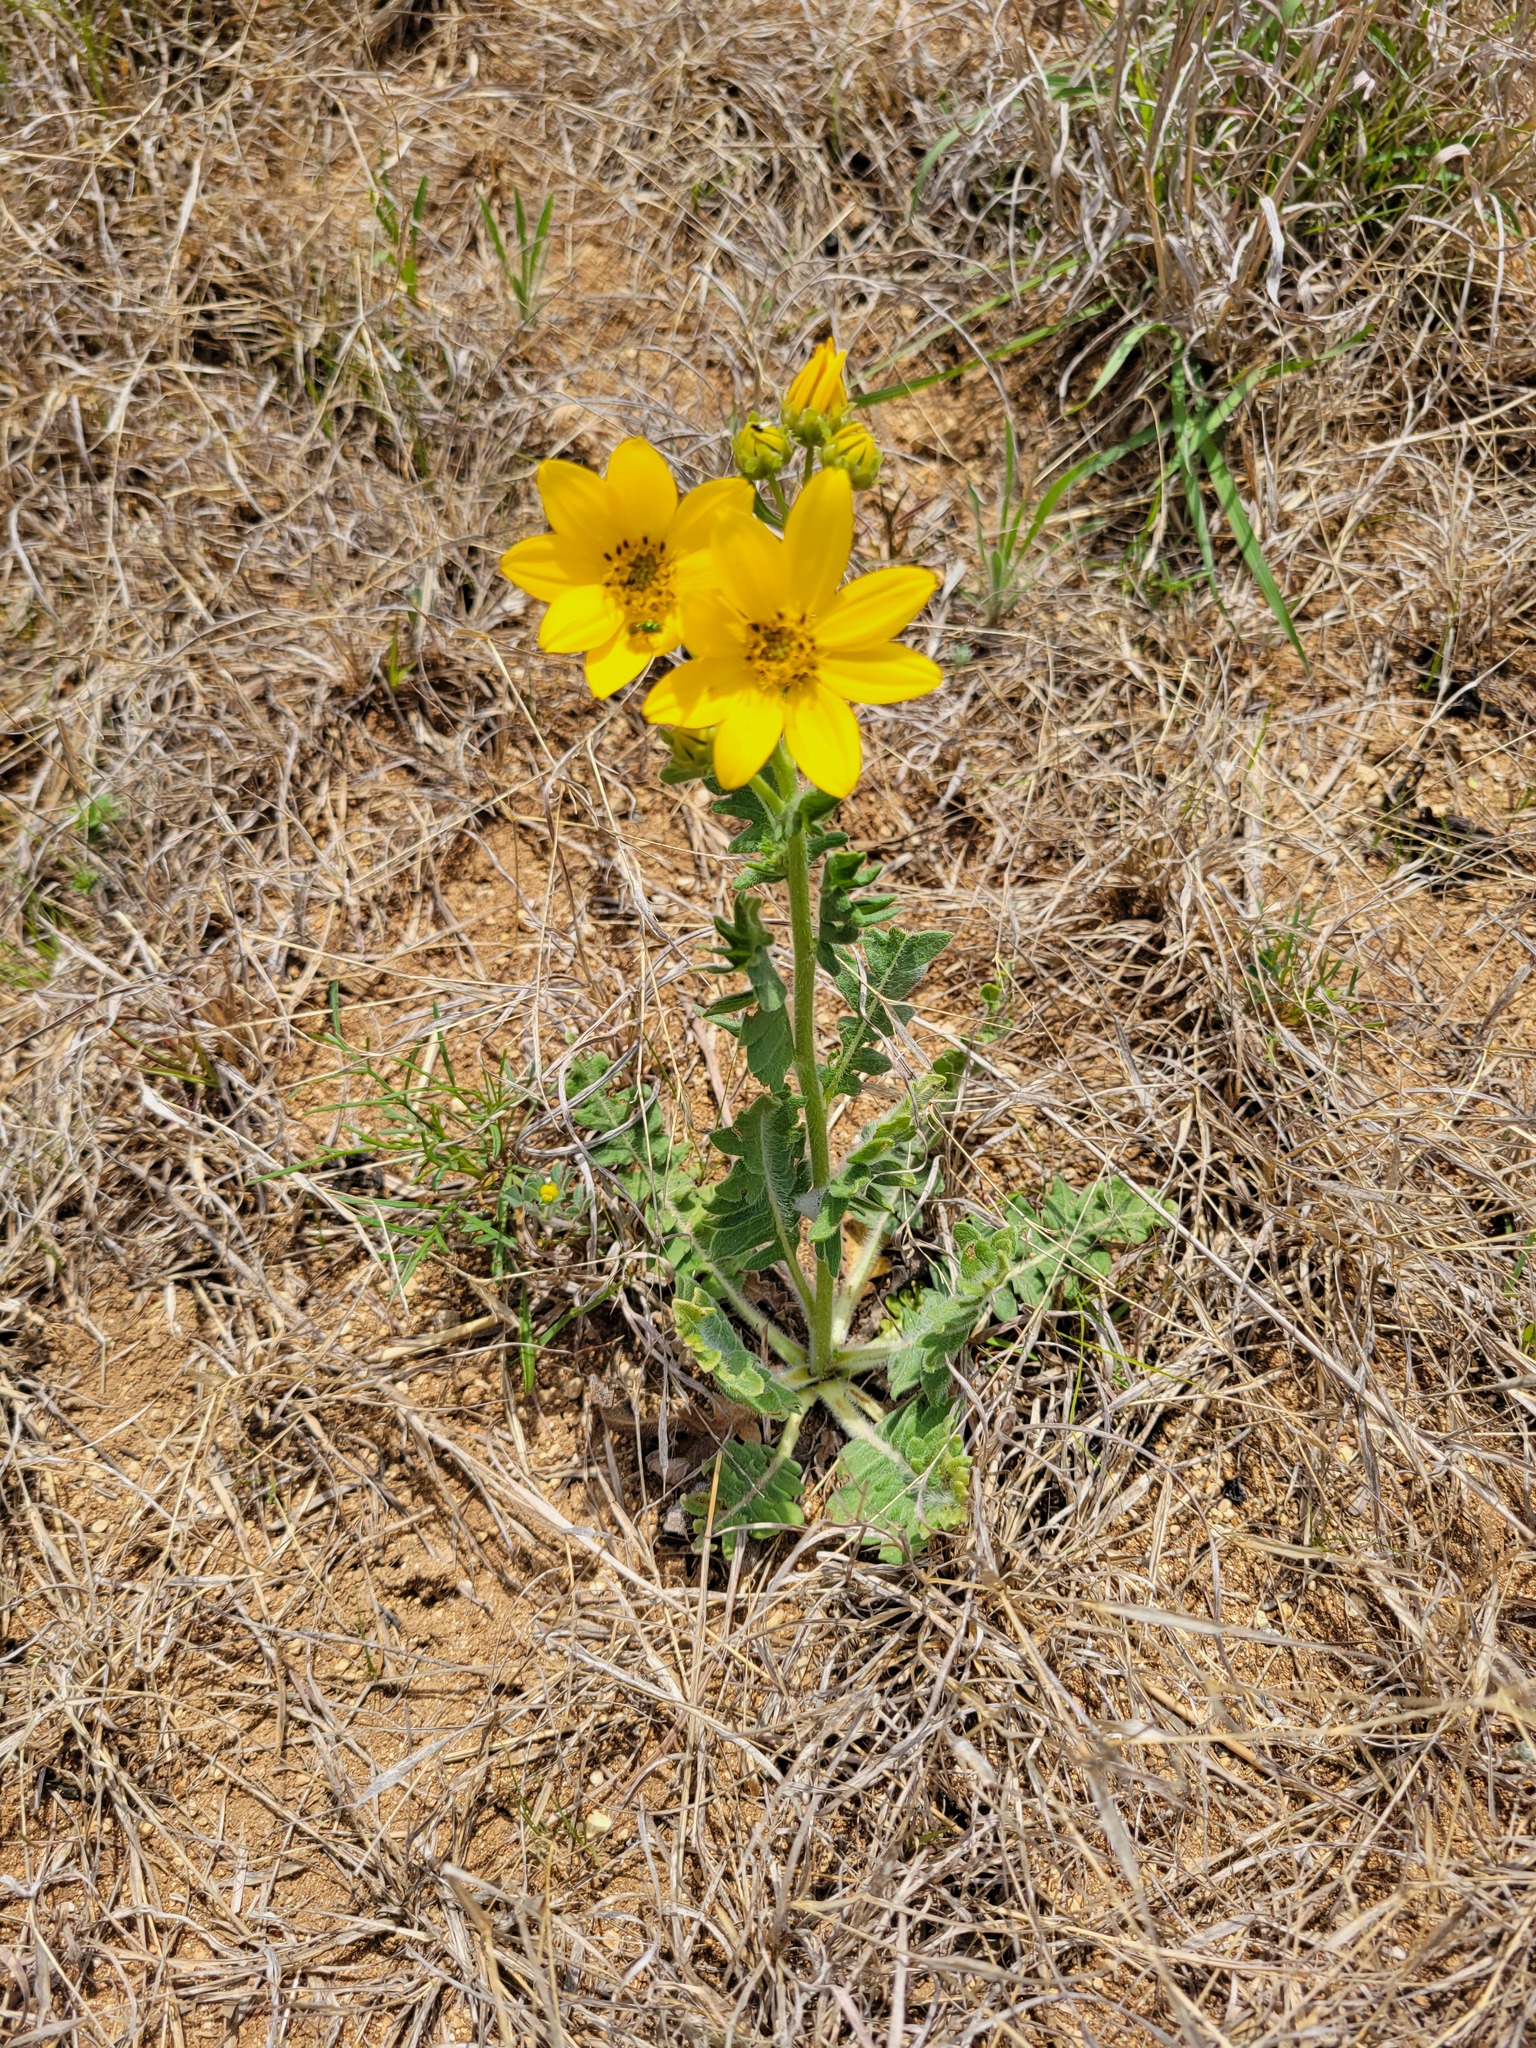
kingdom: Plantae
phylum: Tracheophyta
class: Magnoliopsida
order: Asterales
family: Asteraceae
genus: Engelmannia
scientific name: Engelmannia peristenia
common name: Engelmann's daisy
